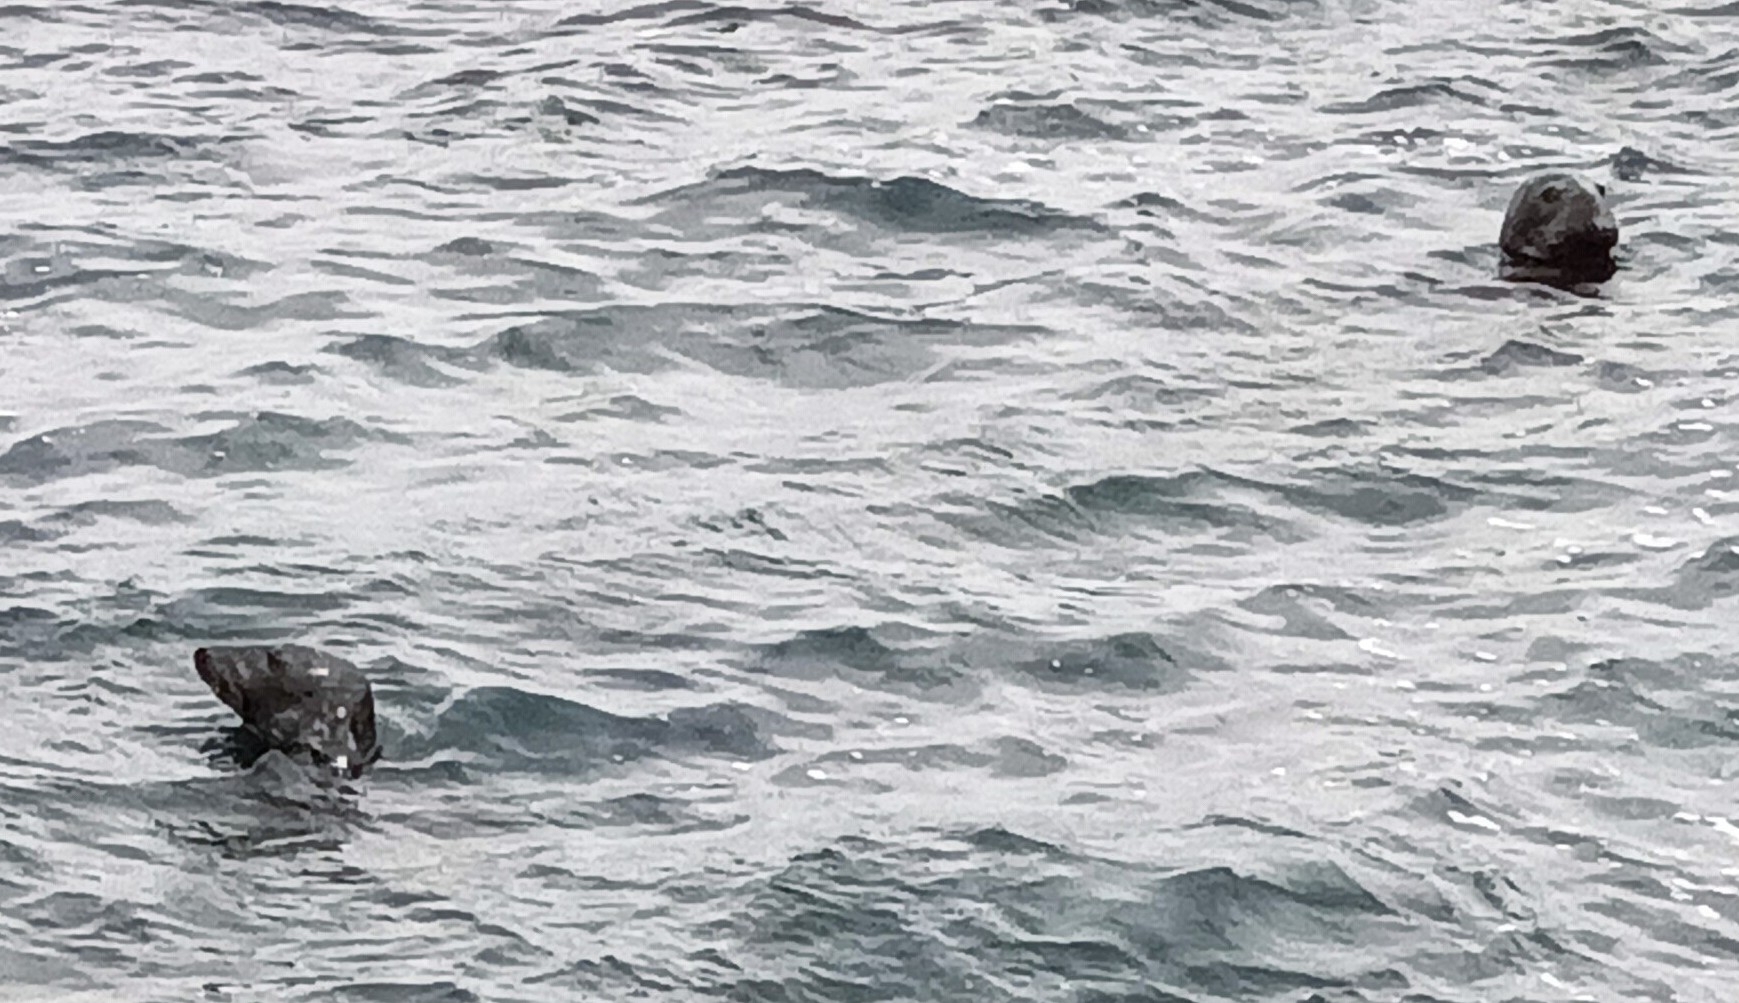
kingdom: Animalia
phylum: Chordata
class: Mammalia
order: Carnivora
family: Phocidae
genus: Halichoerus
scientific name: Halichoerus grypus
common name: Grey seal
